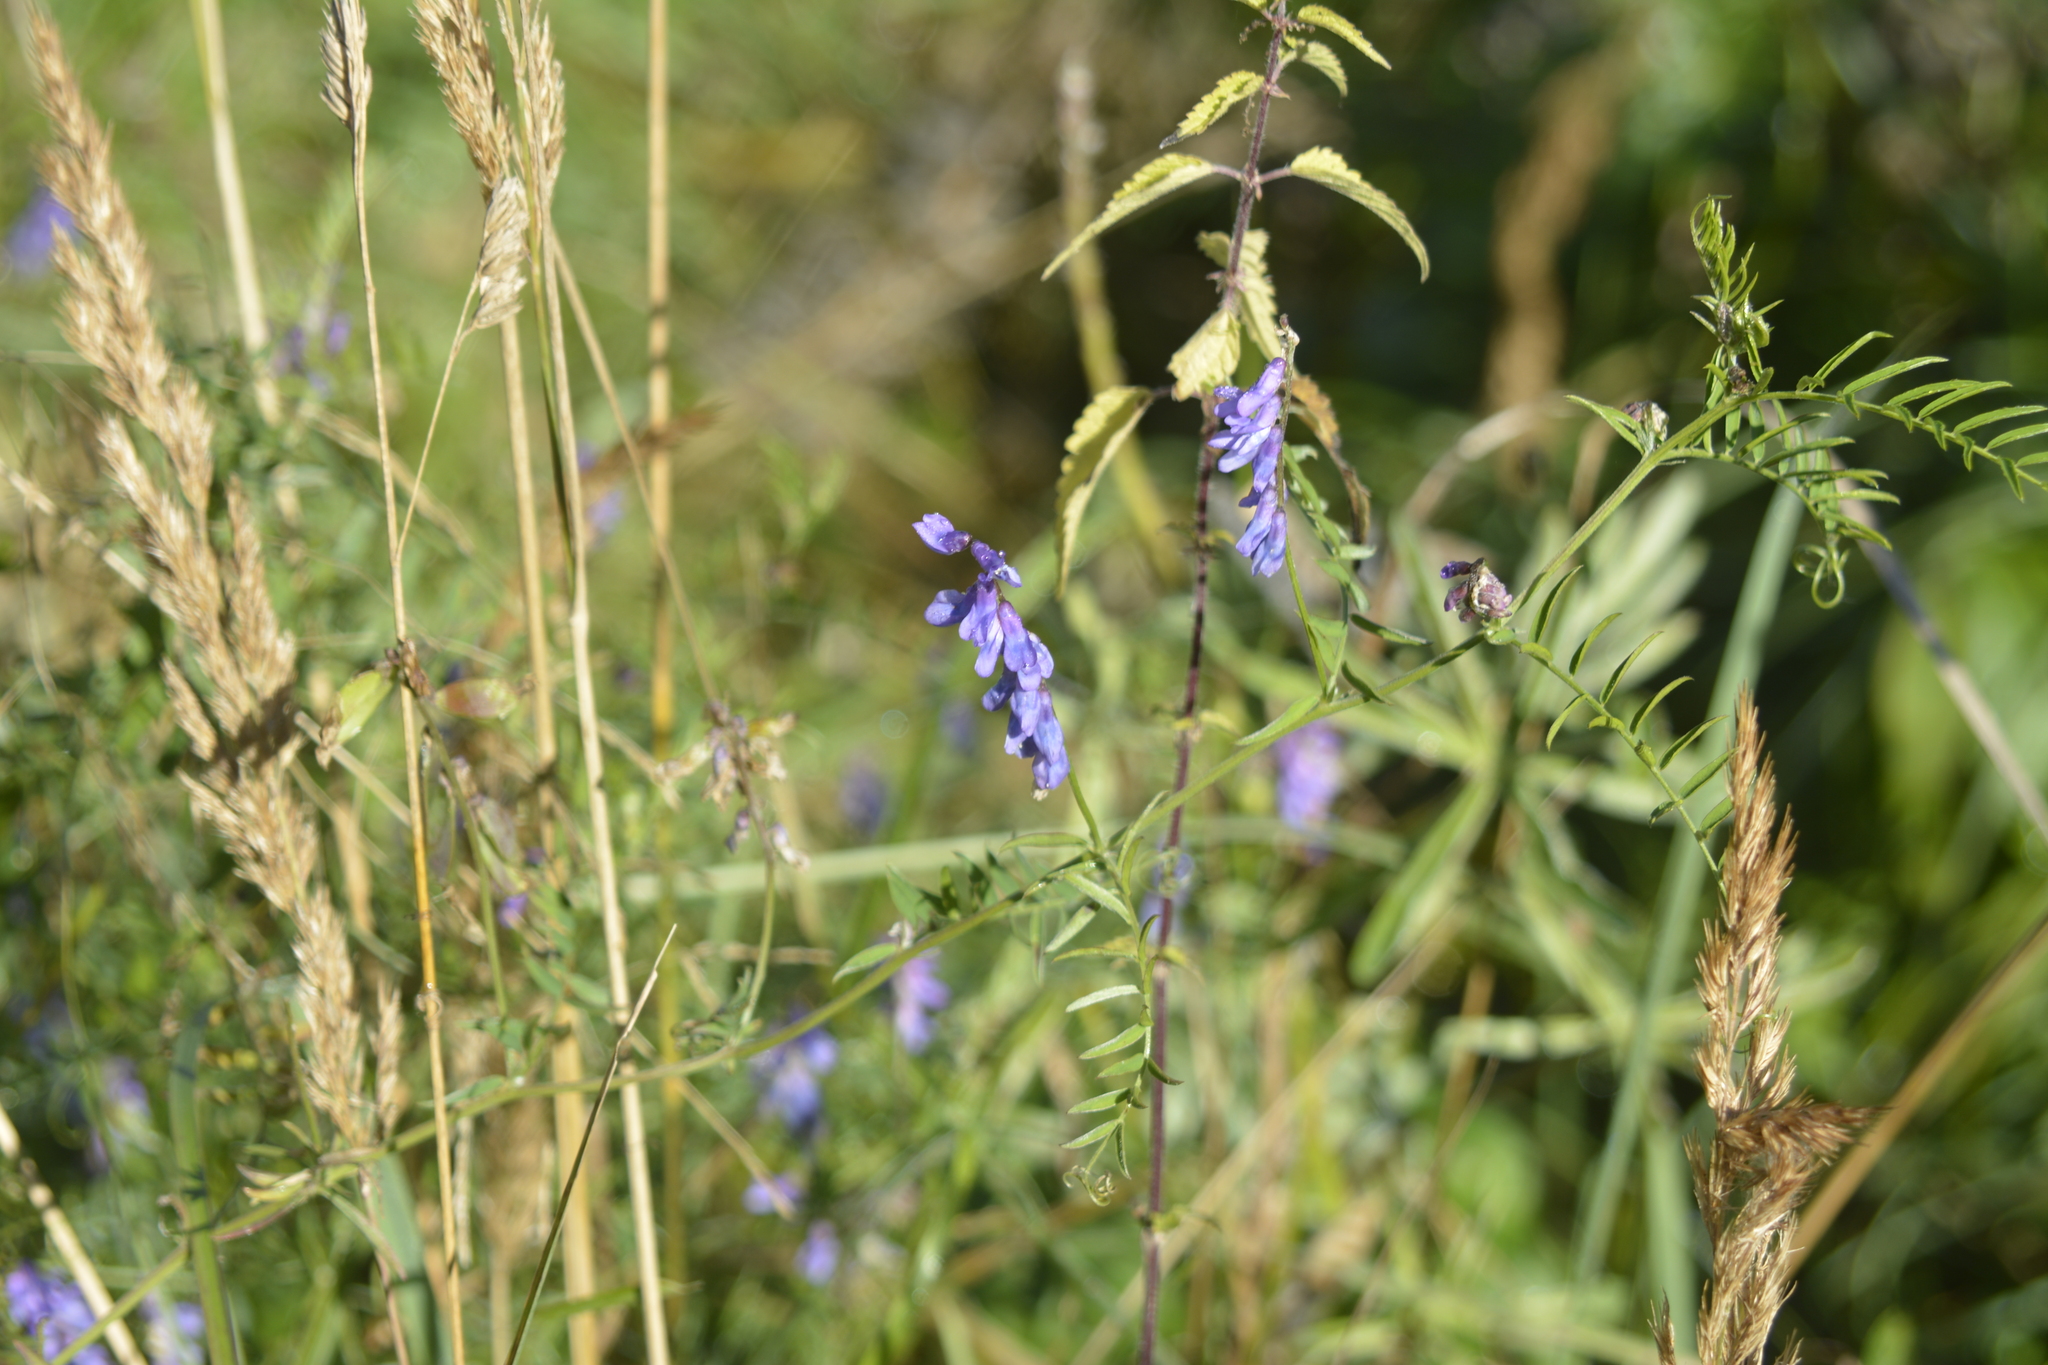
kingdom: Plantae
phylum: Tracheophyta
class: Magnoliopsida
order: Fabales
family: Fabaceae
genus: Vicia
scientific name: Vicia cracca
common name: Bird vetch
